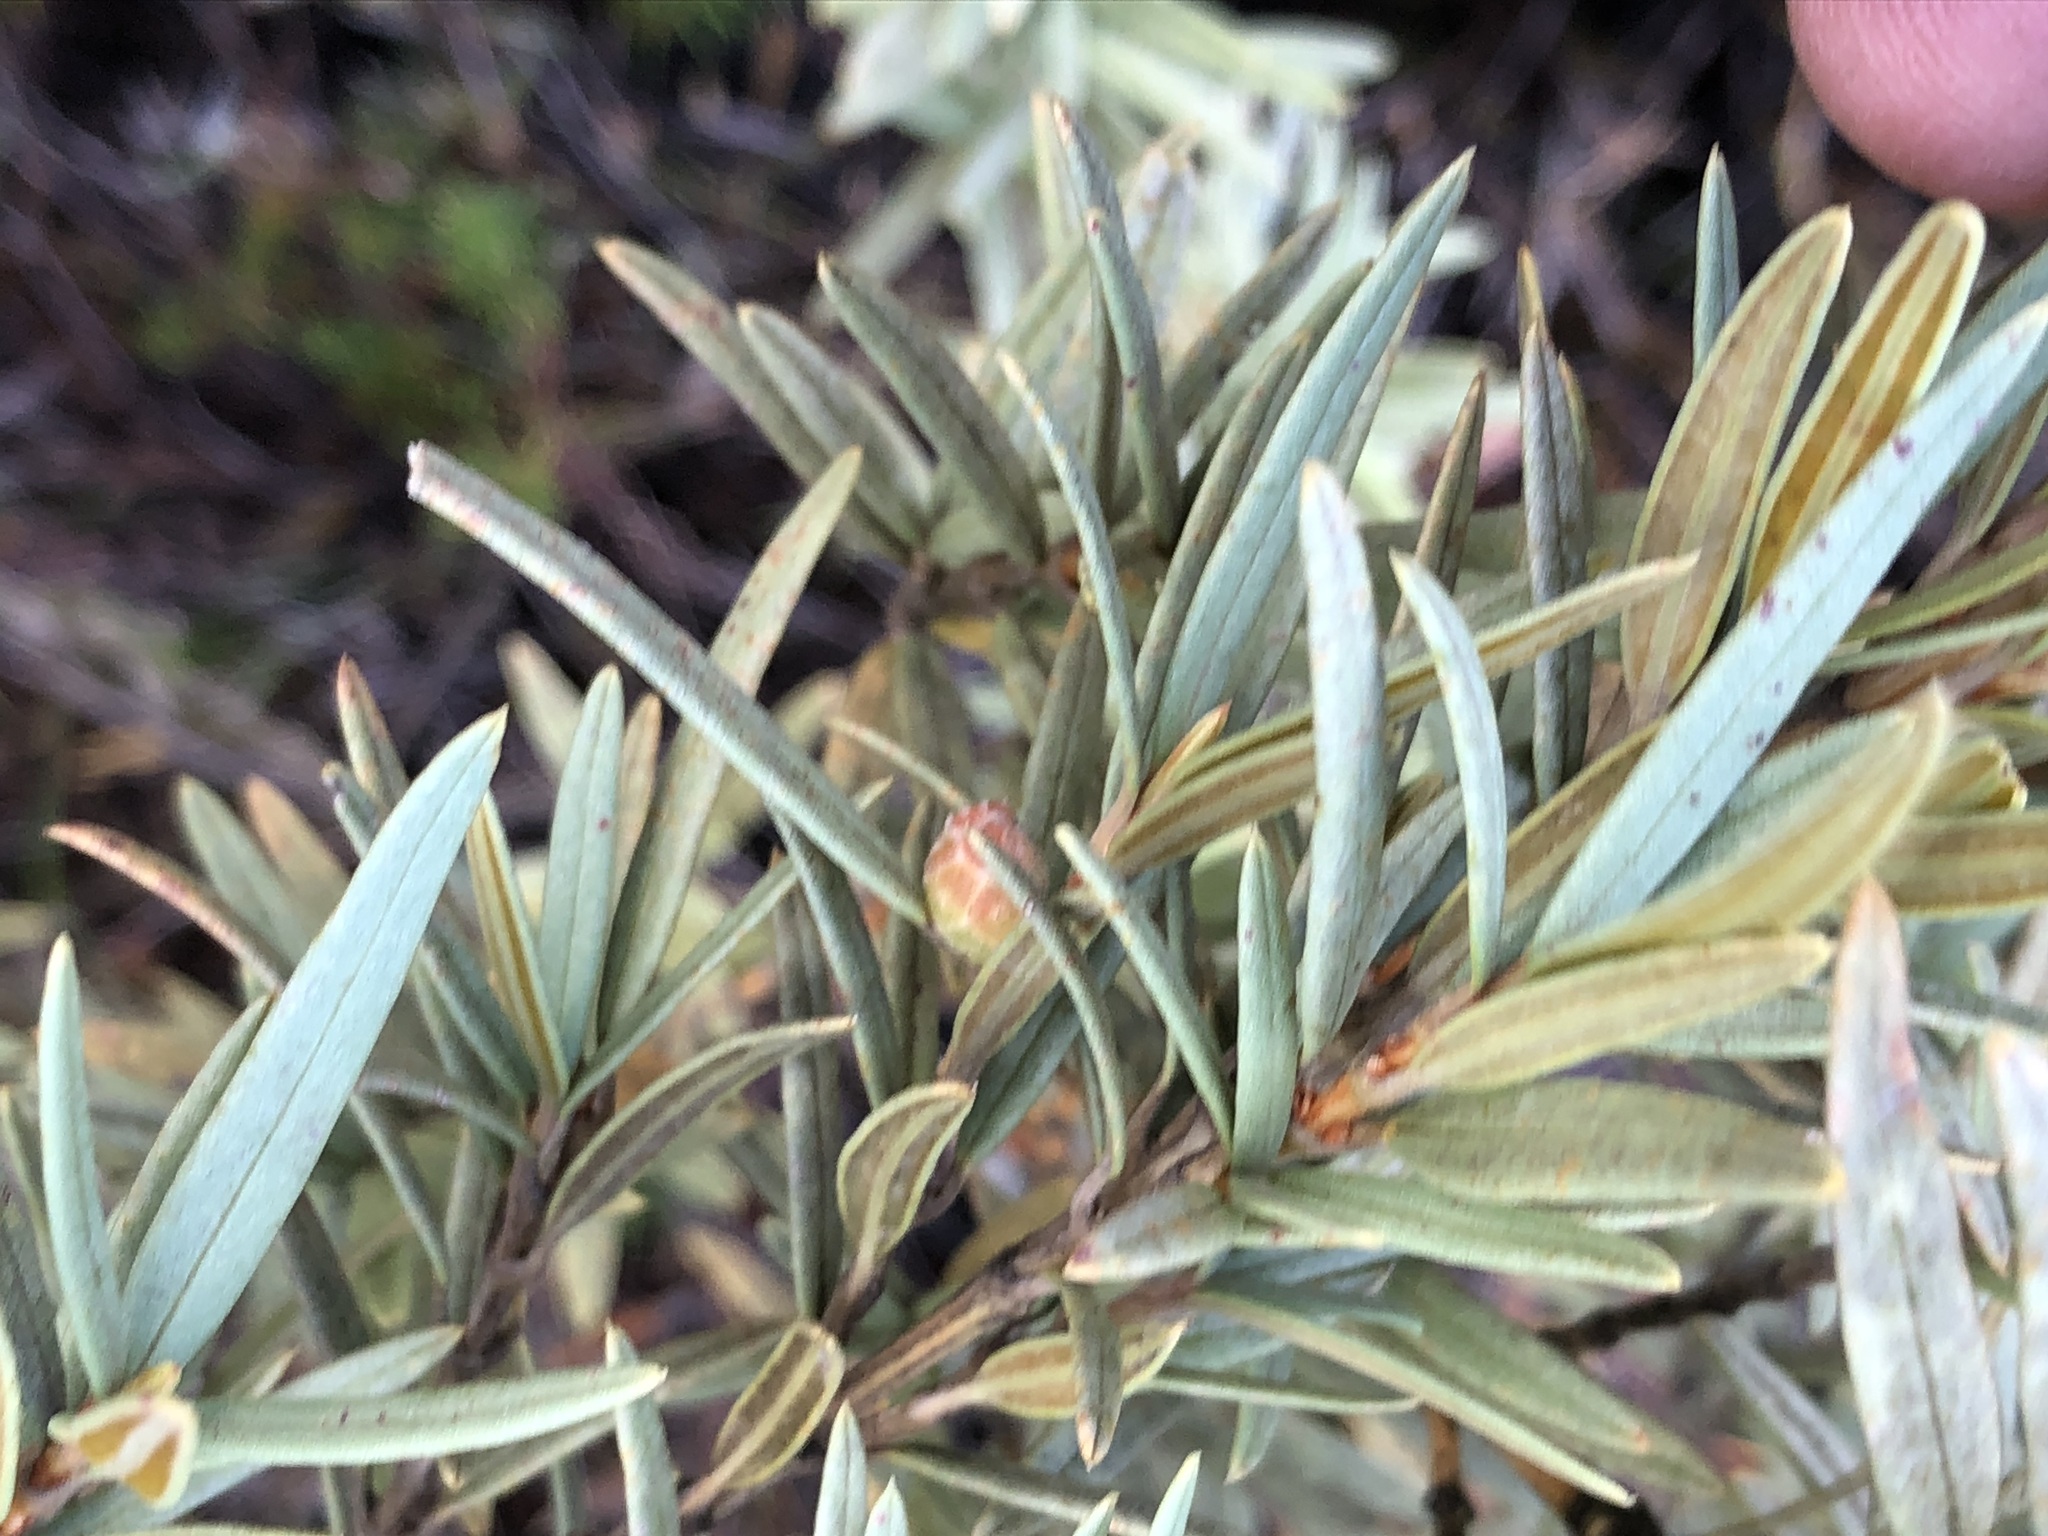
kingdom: Plantae
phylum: Tracheophyta
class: Magnoliopsida
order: Cornales
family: Grubbiaceae
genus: Grubbia
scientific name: Grubbia tomentosa
